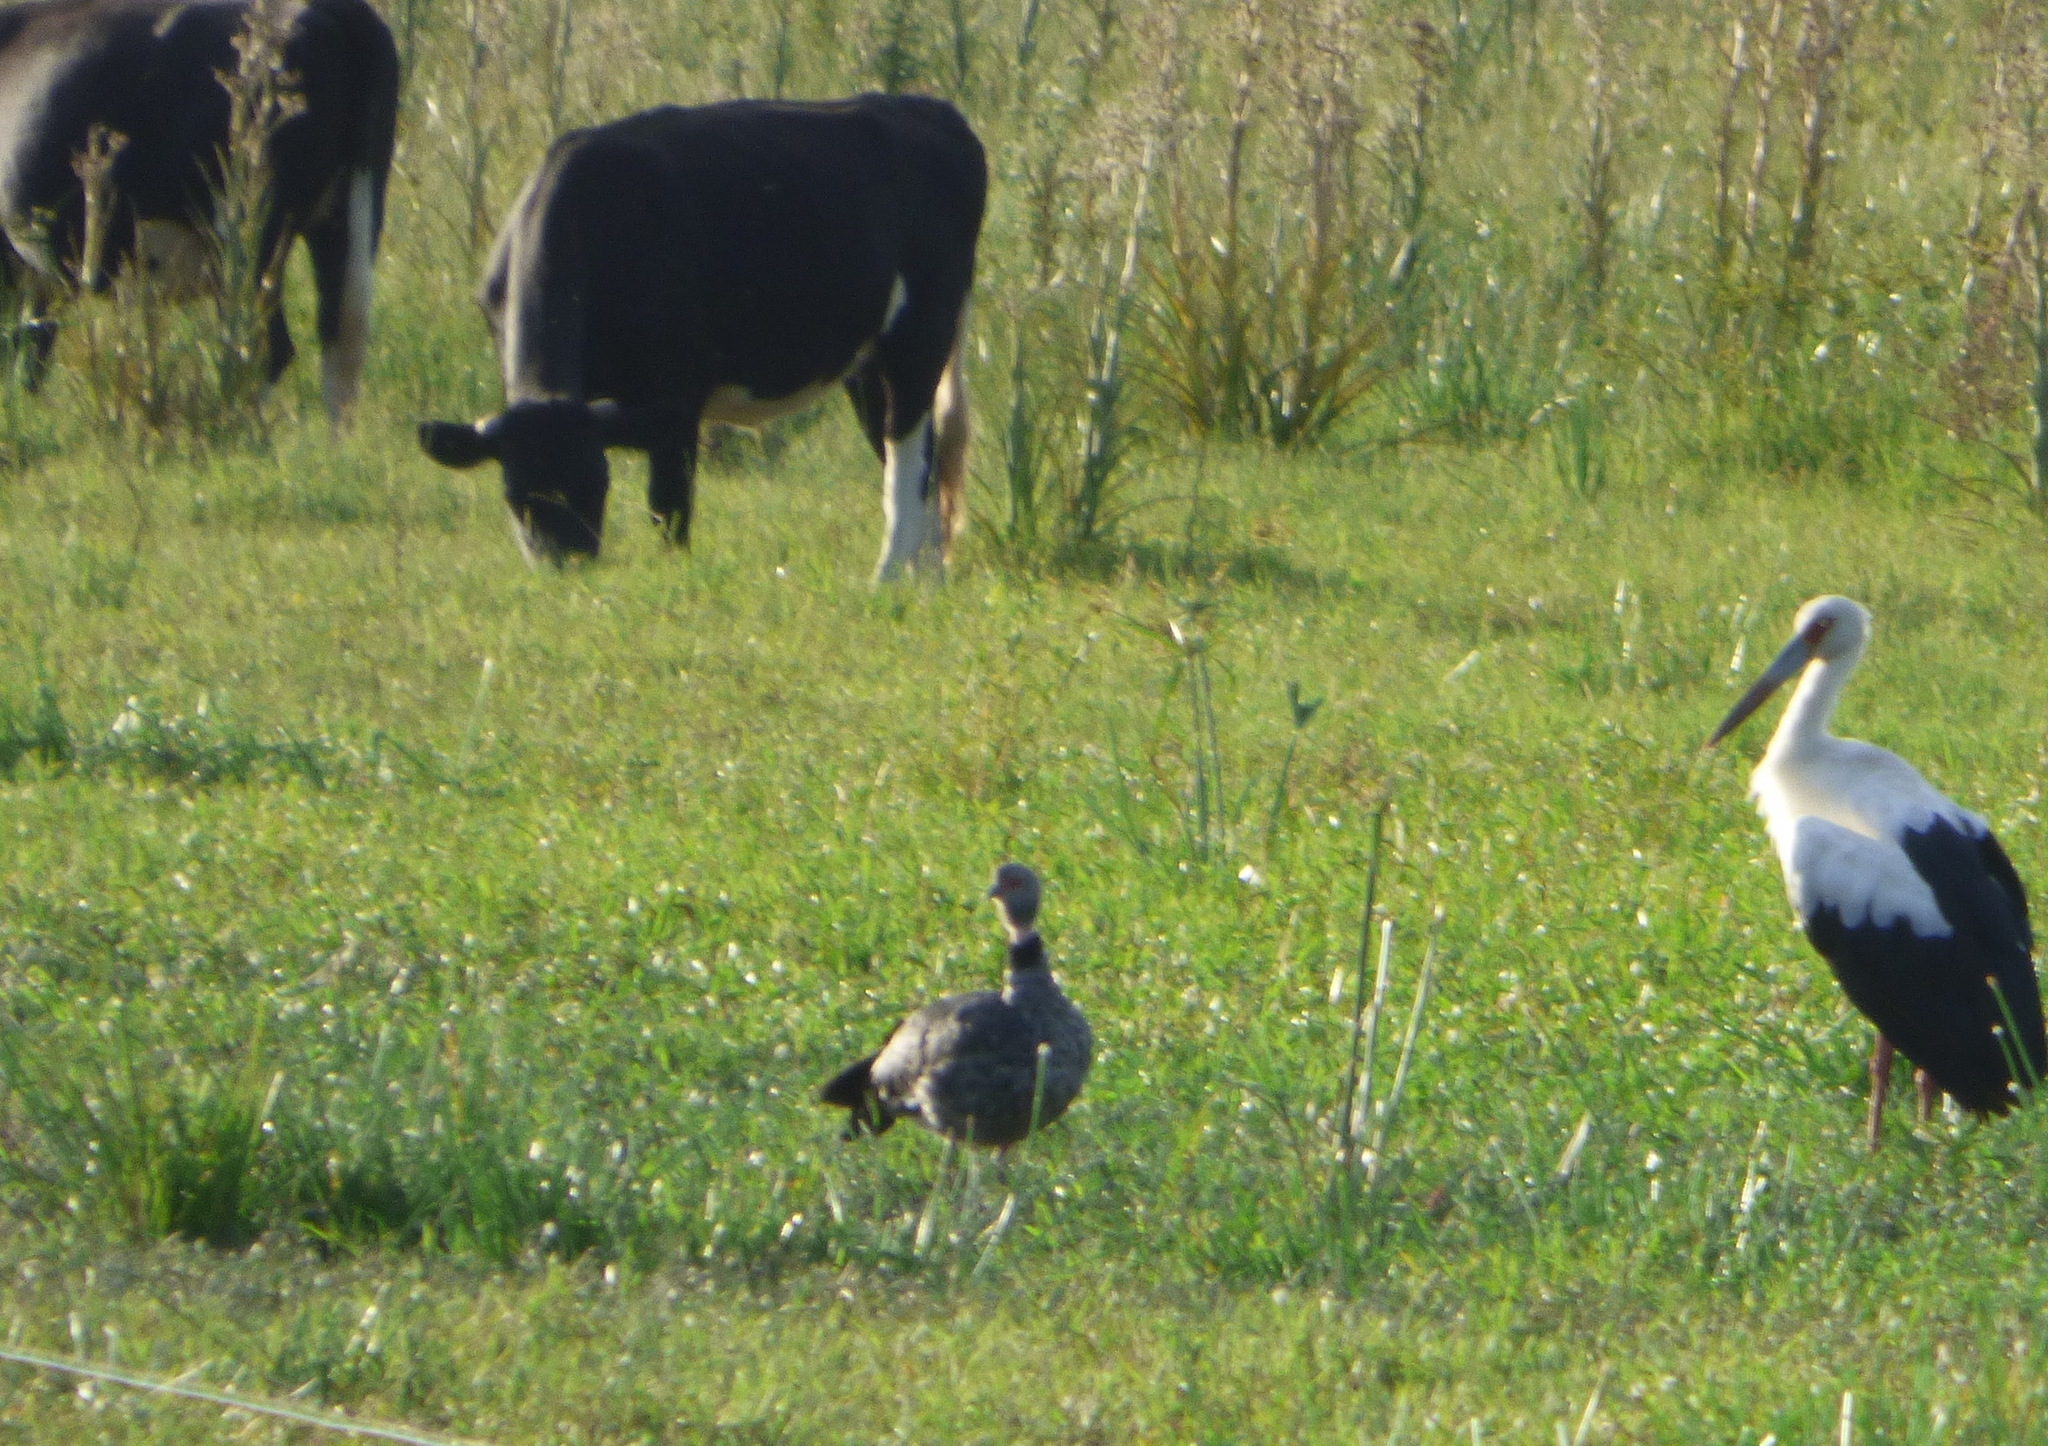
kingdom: Animalia
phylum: Chordata
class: Aves
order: Anseriformes
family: Anhimidae
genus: Chauna
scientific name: Chauna torquata
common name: Southern screamer
